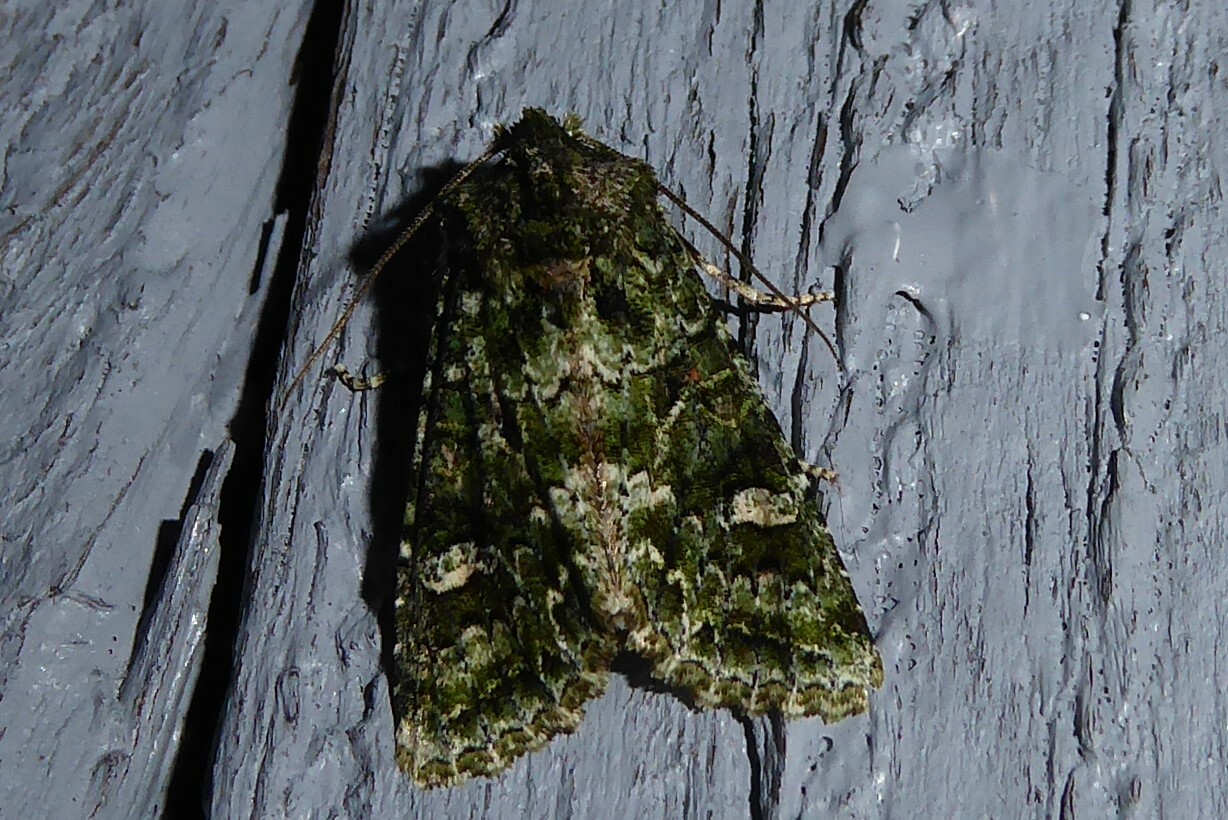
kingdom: Animalia
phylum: Arthropoda
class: Insecta
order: Lepidoptera
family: Noctuidae
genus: Ichneutica
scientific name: Ichneutica
